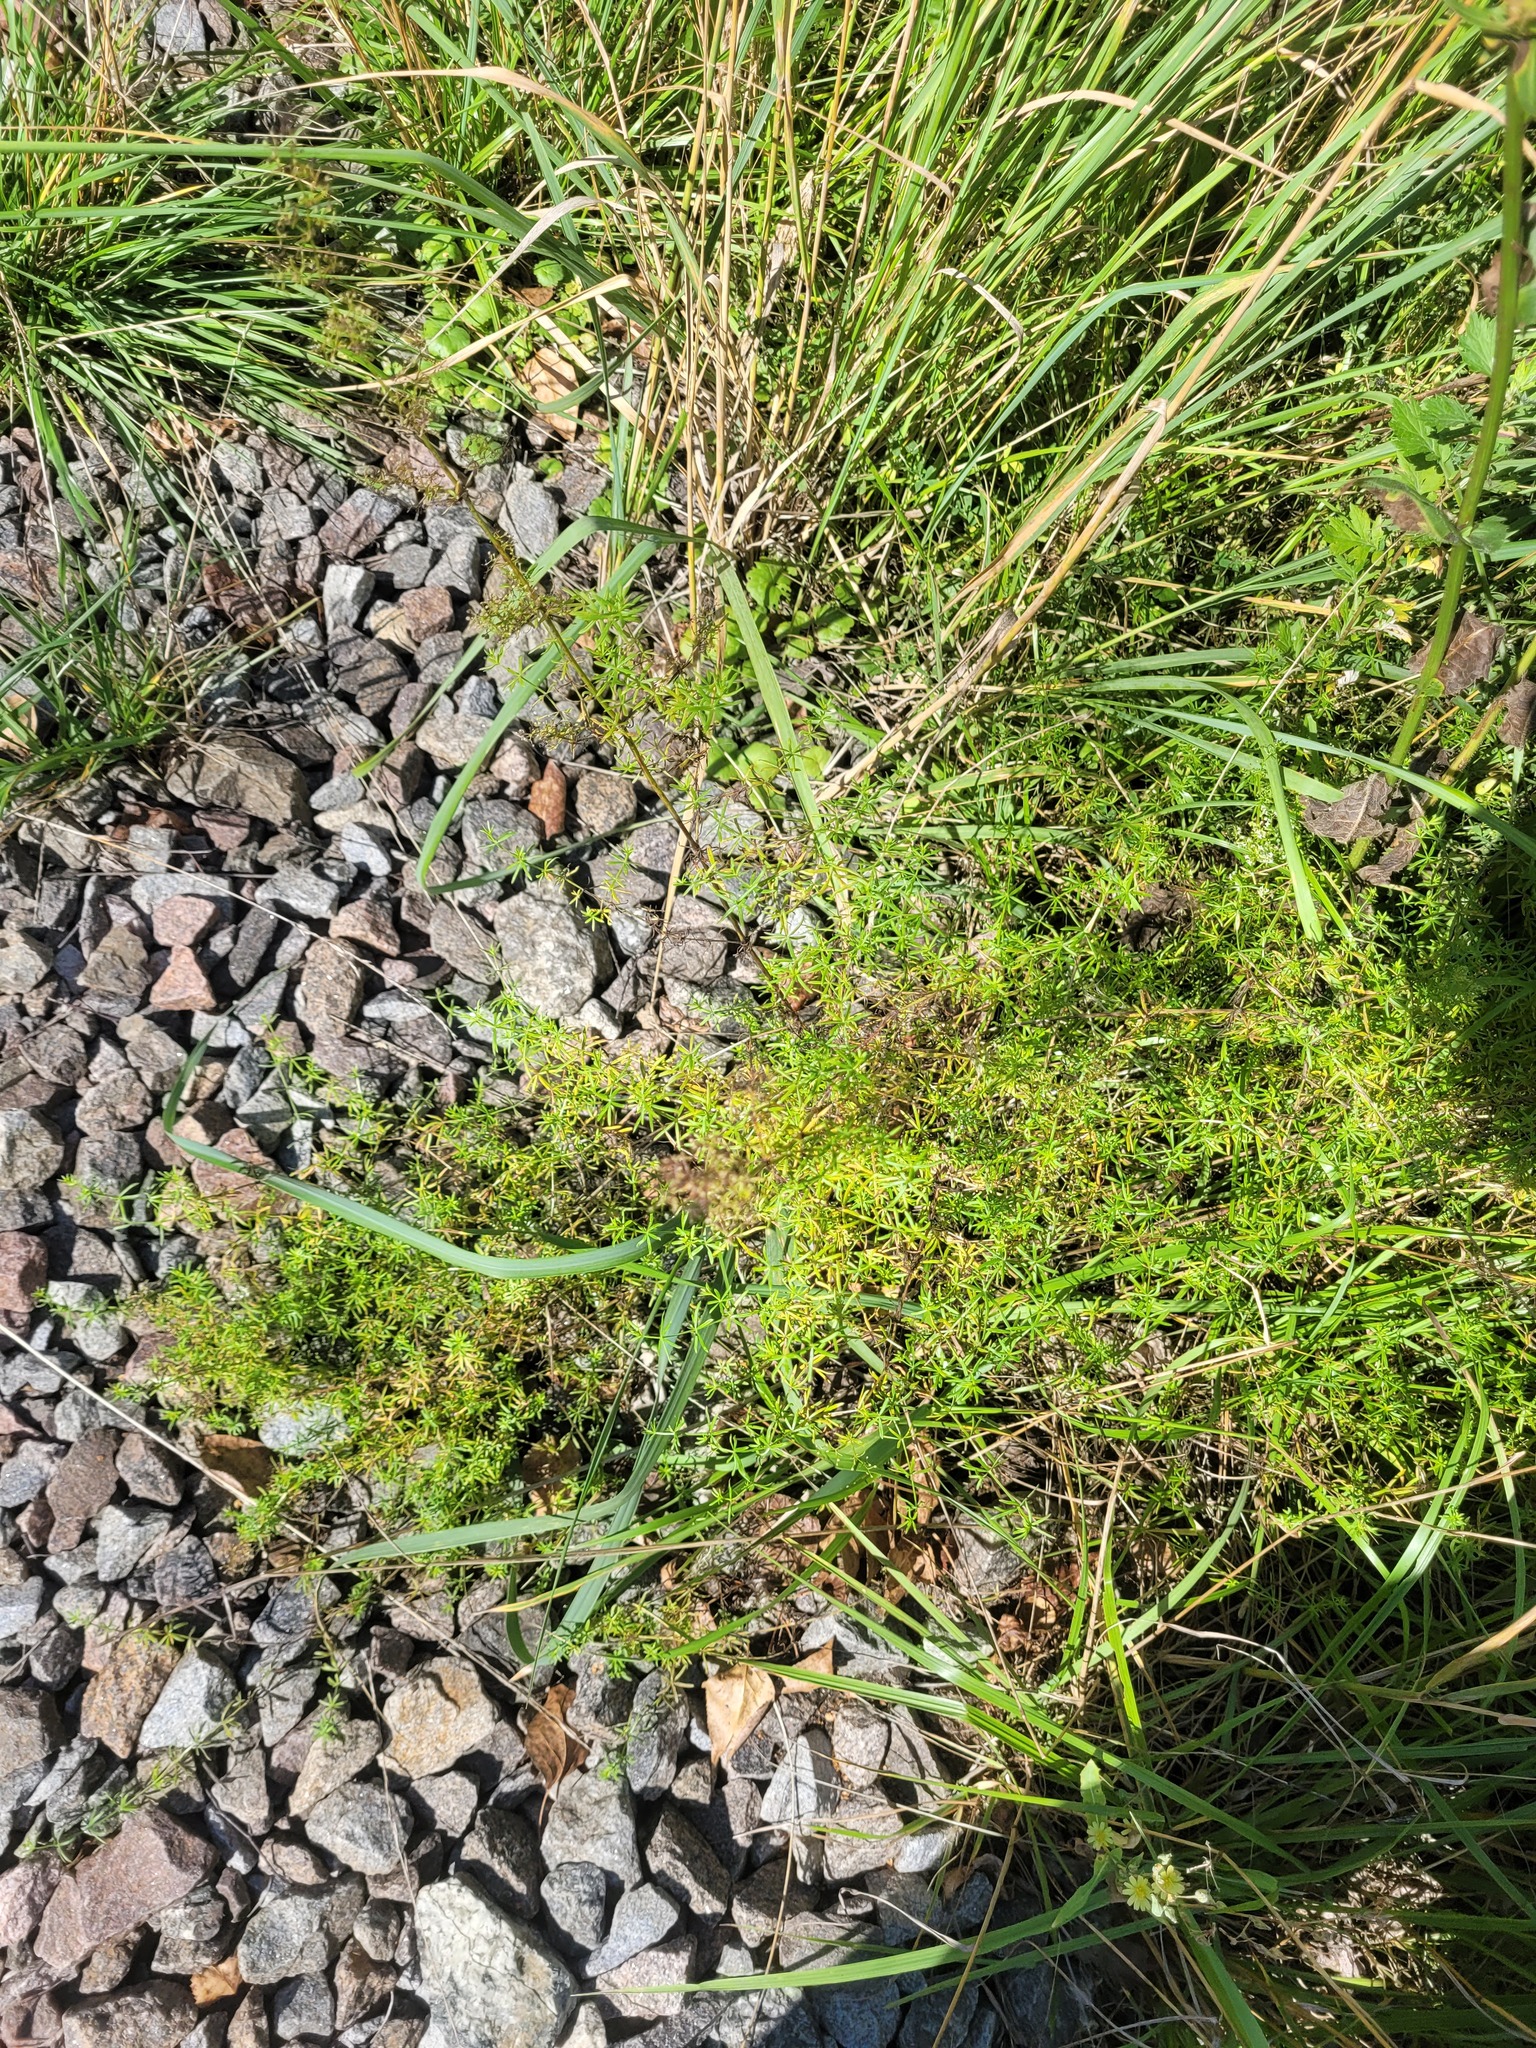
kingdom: Plantae
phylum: Tracheophyta
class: Magnoliopsida
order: Gentianales
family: Rubiaceae
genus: Galium
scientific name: Galium mollugo
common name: Hedge bedstraw
